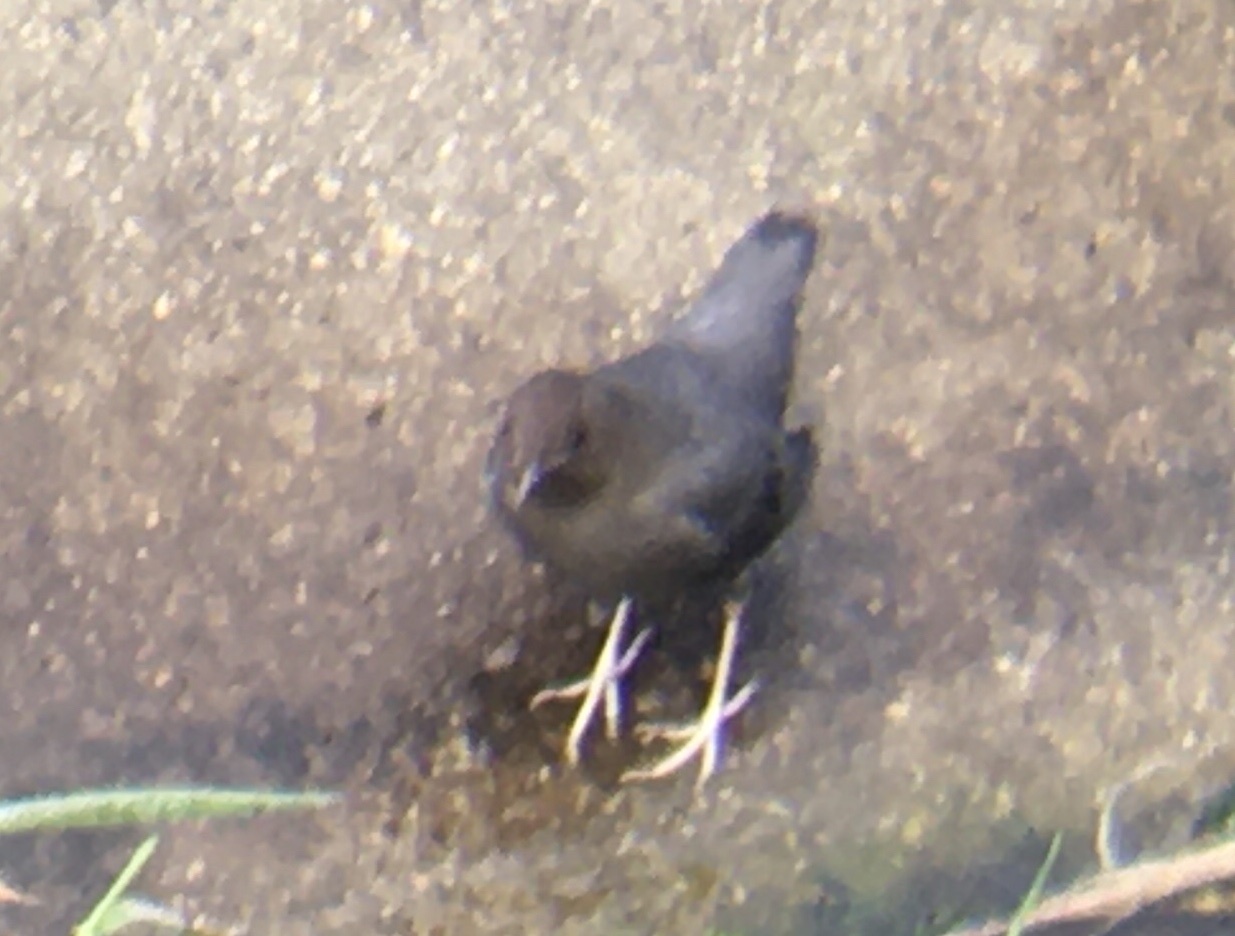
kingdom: Animalia
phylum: Chordata
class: Aves
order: Passeriformes
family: Cinclidae
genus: Cinclus
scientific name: Cinclus mexicanus
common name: American dipper
